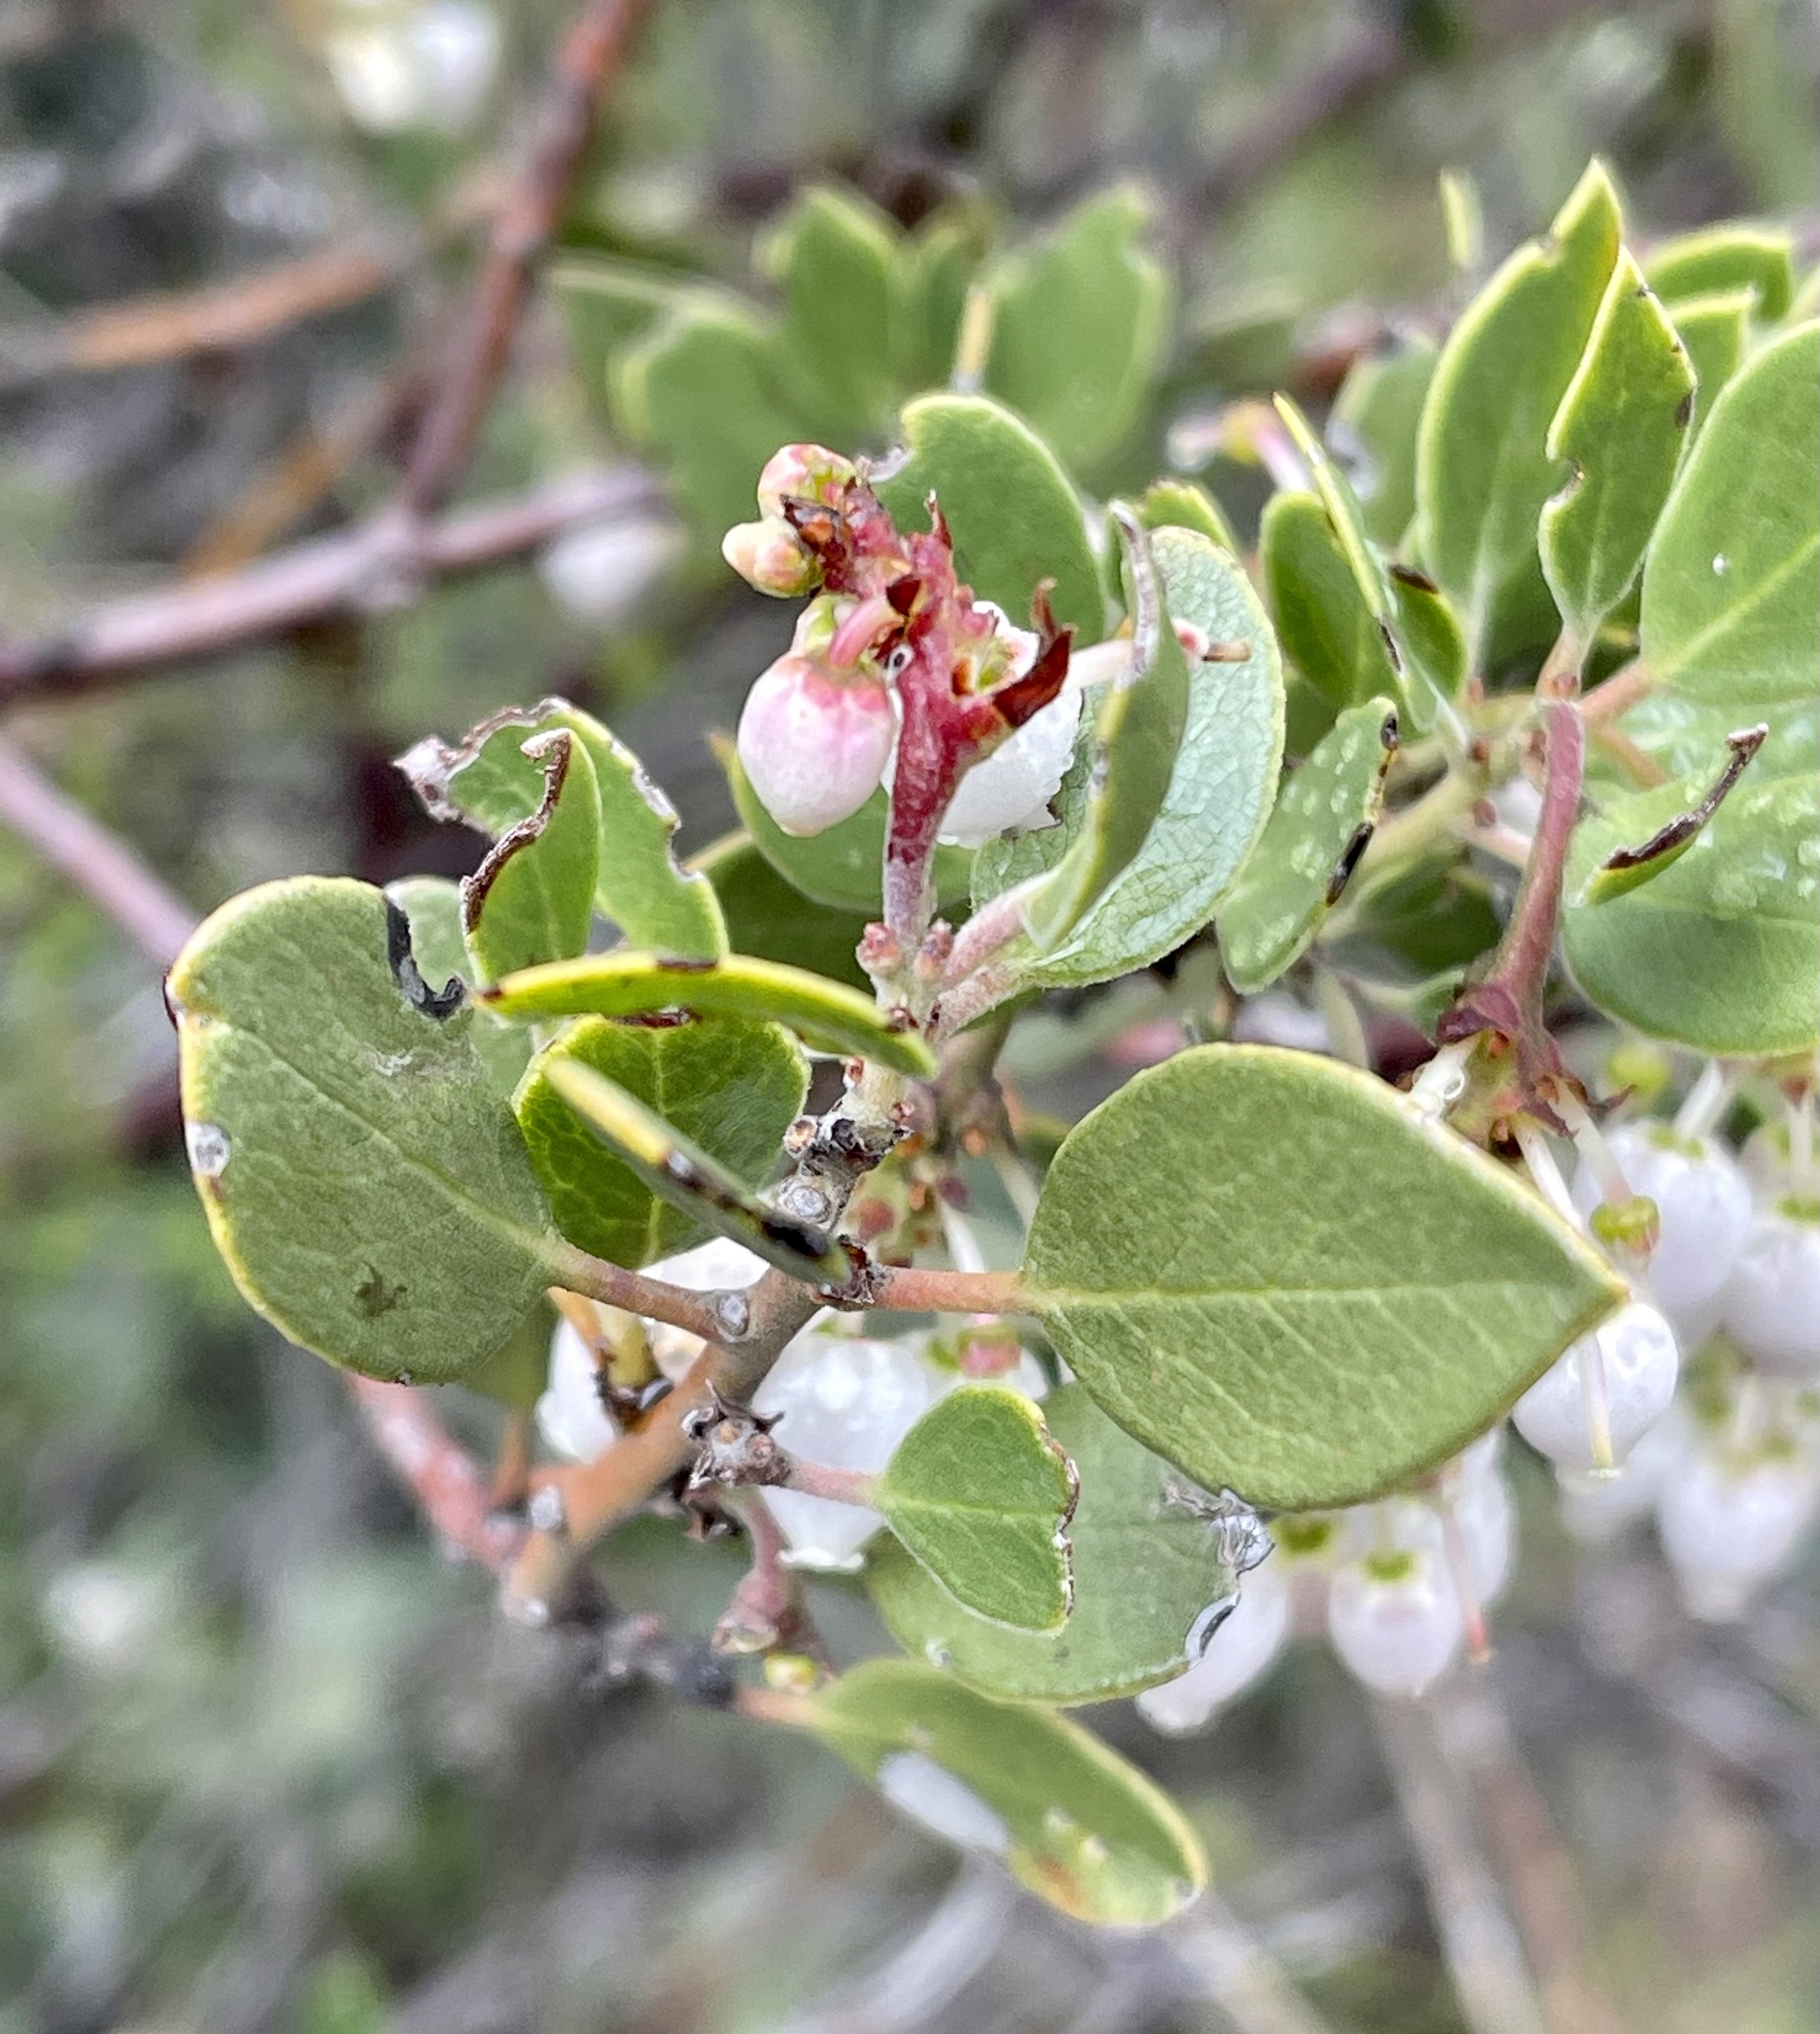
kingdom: Plantae
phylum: Tracheophyta
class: Magnoliopsida
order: Ericales
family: Ericaceae
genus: Arctostaphylos
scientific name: Arctostaphylos pungens
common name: Mexican manzanita
